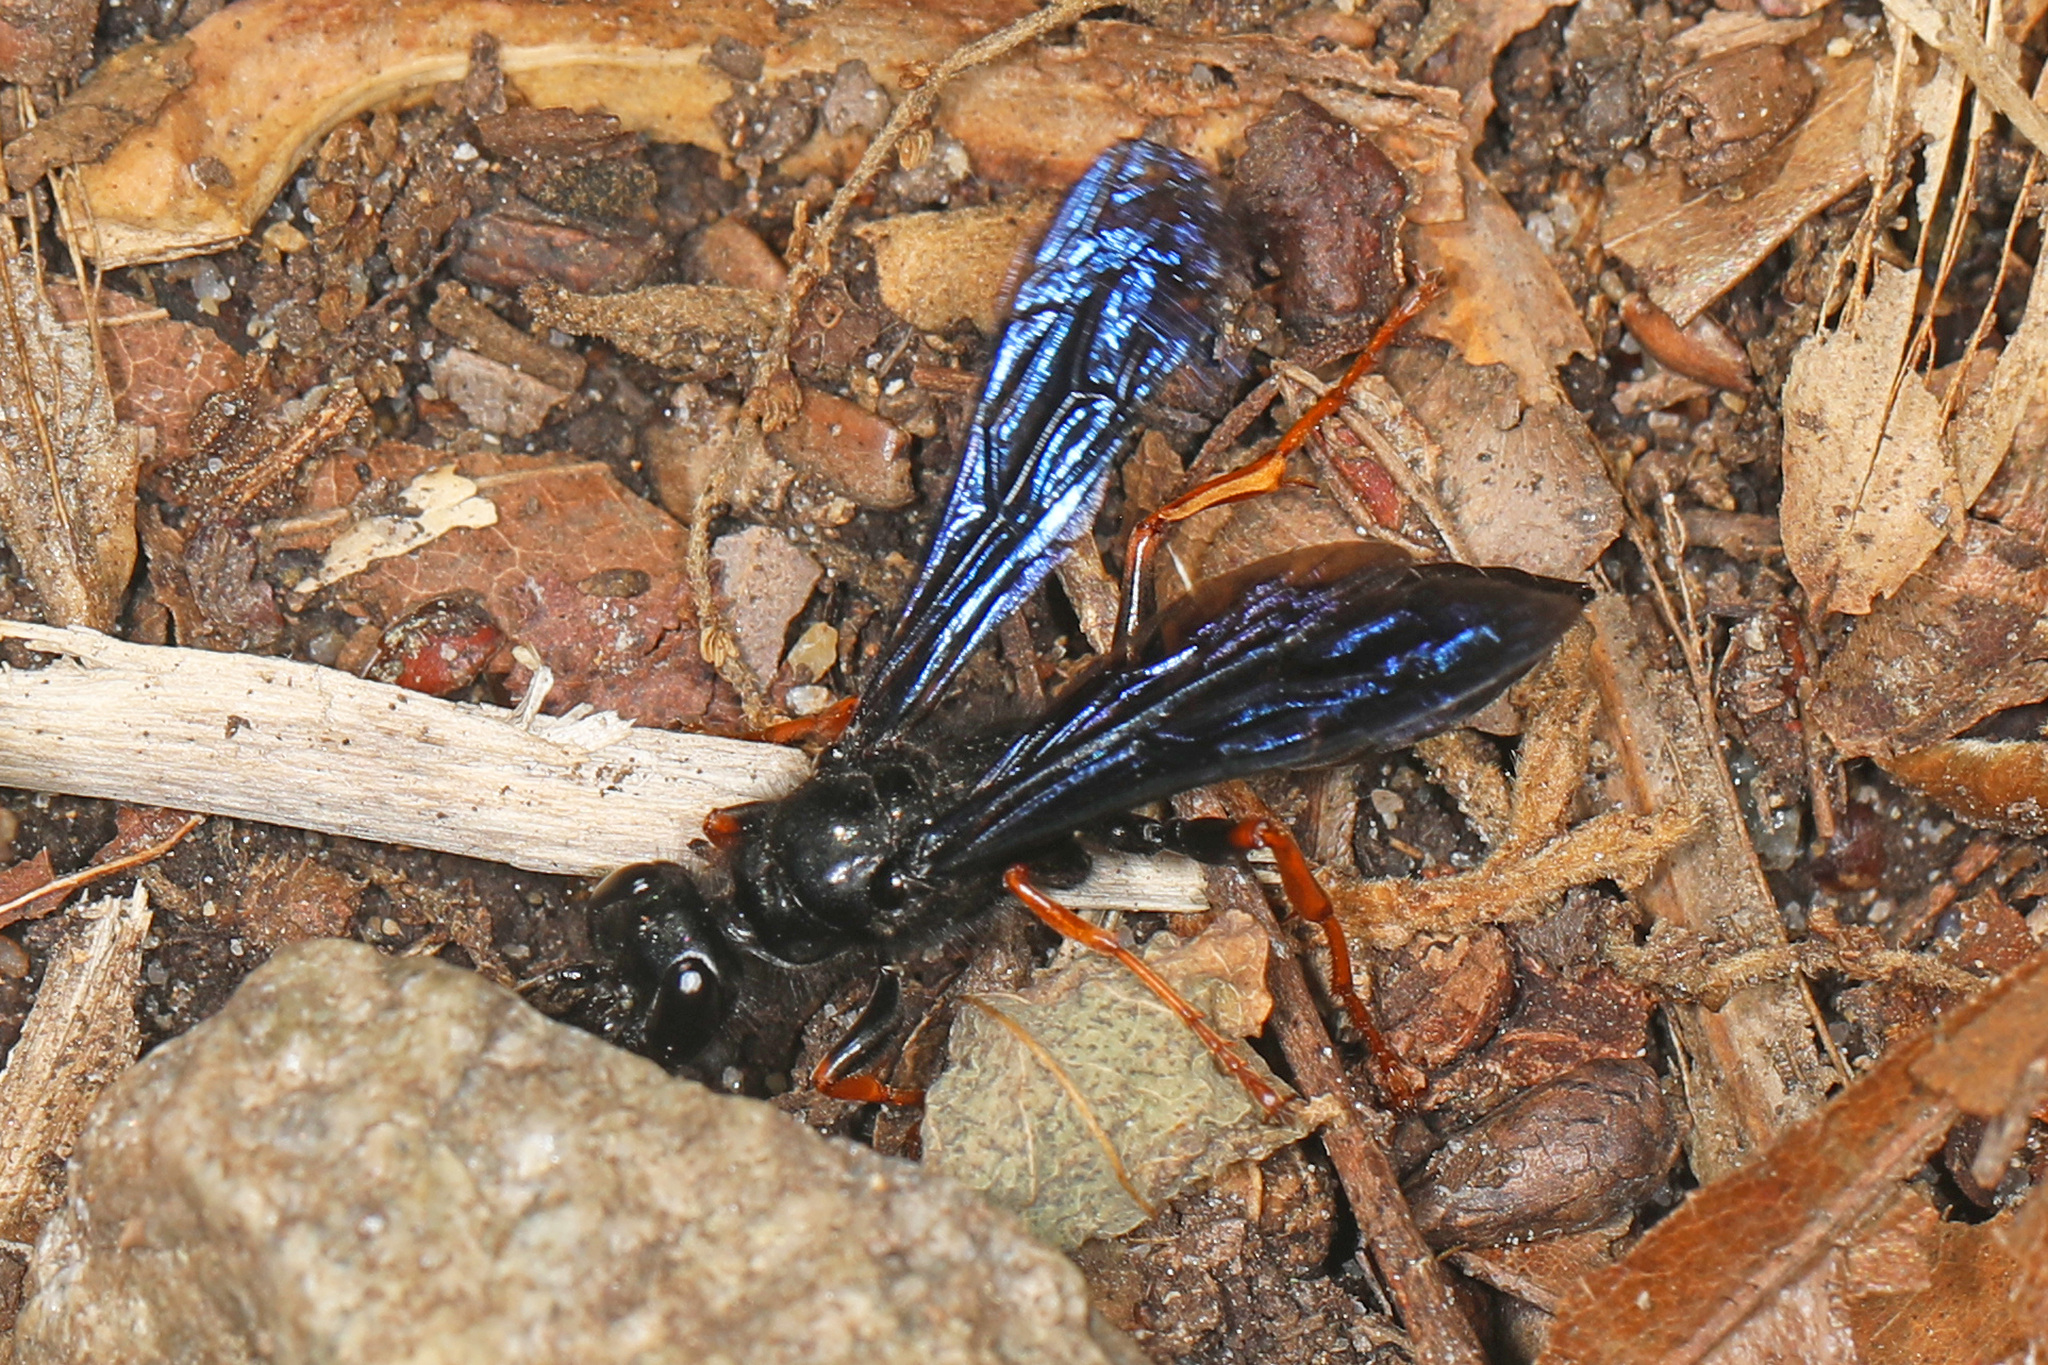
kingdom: Animalia
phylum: Arthropoda
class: Insecta
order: Hymenoptera
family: Sphecidae
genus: Podium
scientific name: Podium luctuosum
